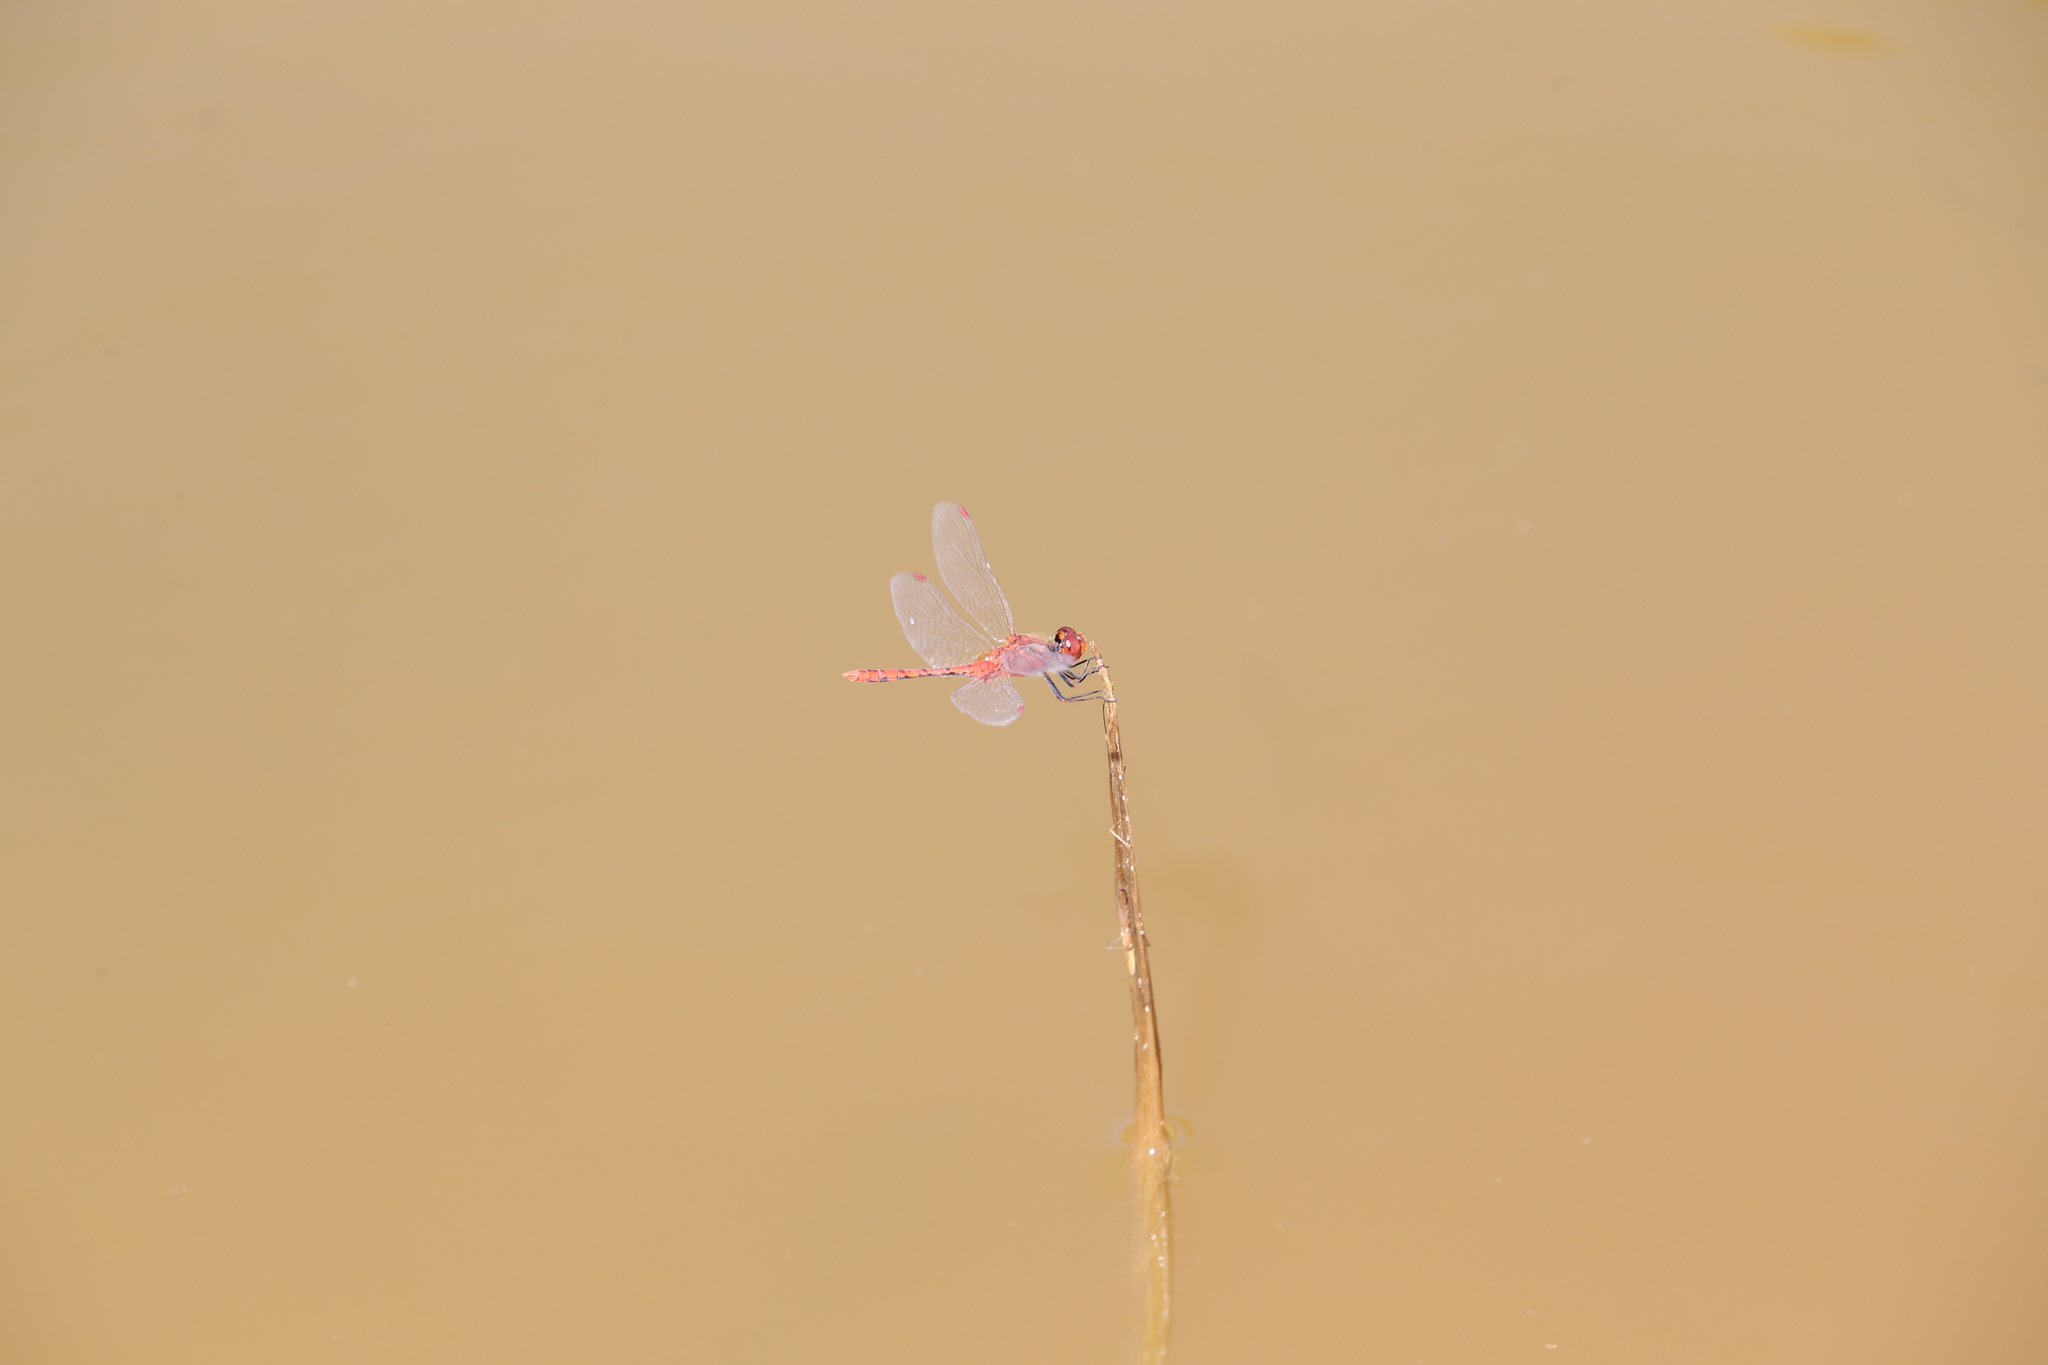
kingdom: Animalia
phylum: Arthropoda
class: Insecta
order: Odonata
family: Libellulidae
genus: Diplacodes
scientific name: Diplacodes bipunctata
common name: Red percher dragonfly
